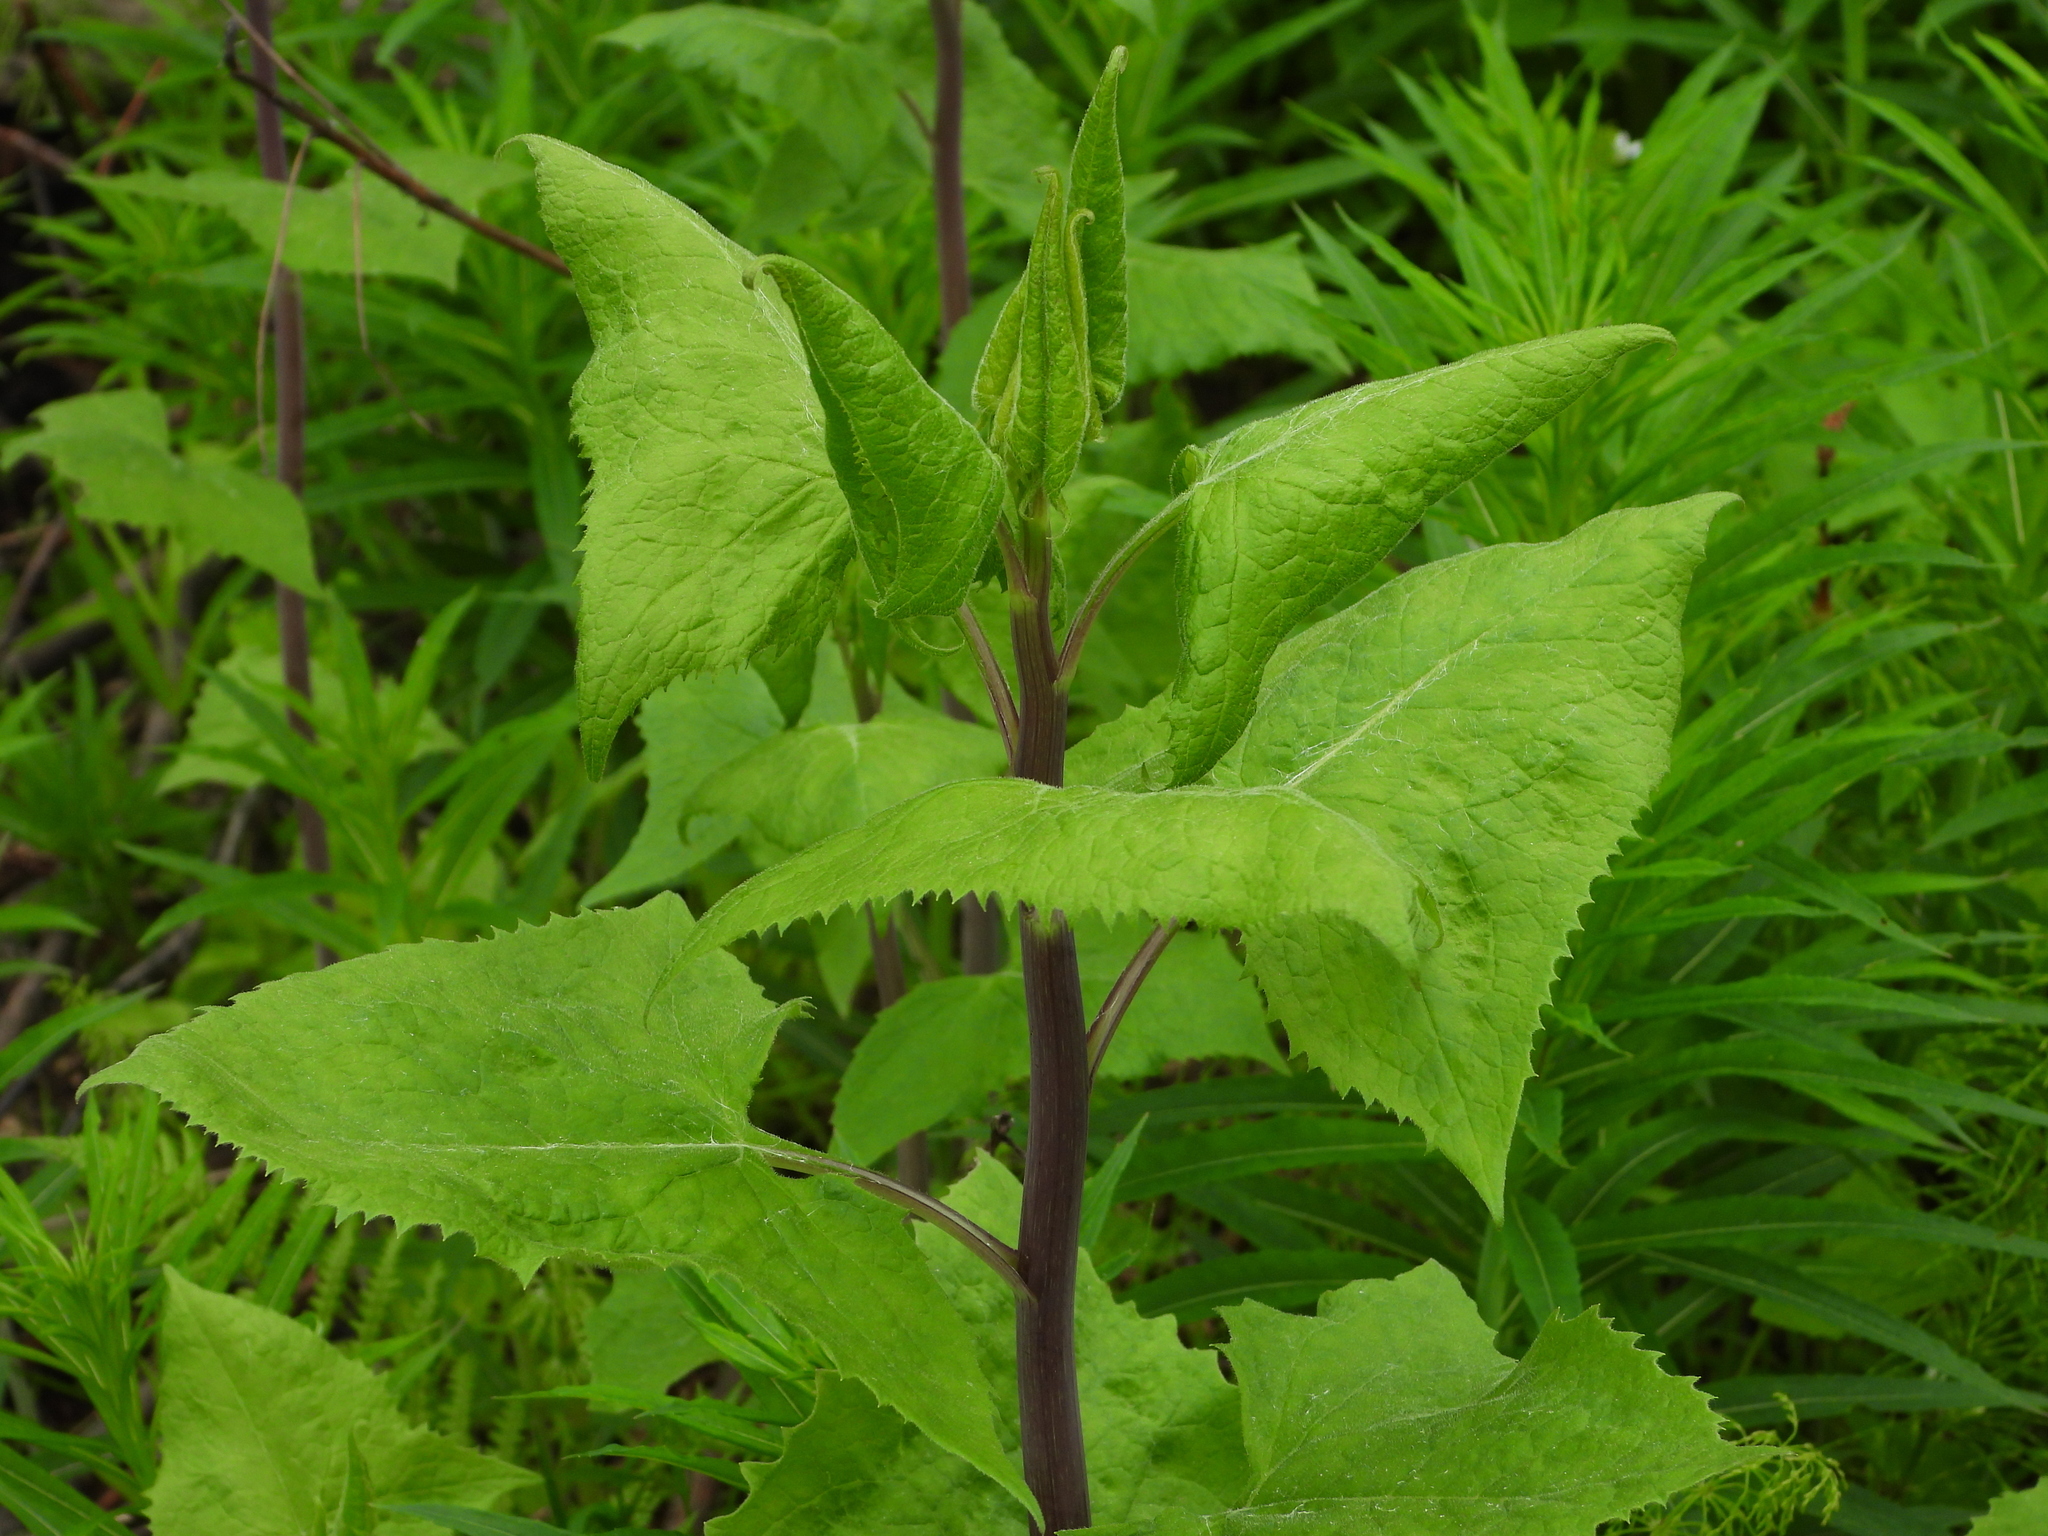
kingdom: Plantae
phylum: Tracheophyta
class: Magnoliopsida
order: Asterales
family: Asteraceae
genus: Parasenecio
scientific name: Parasenecio hastatus
